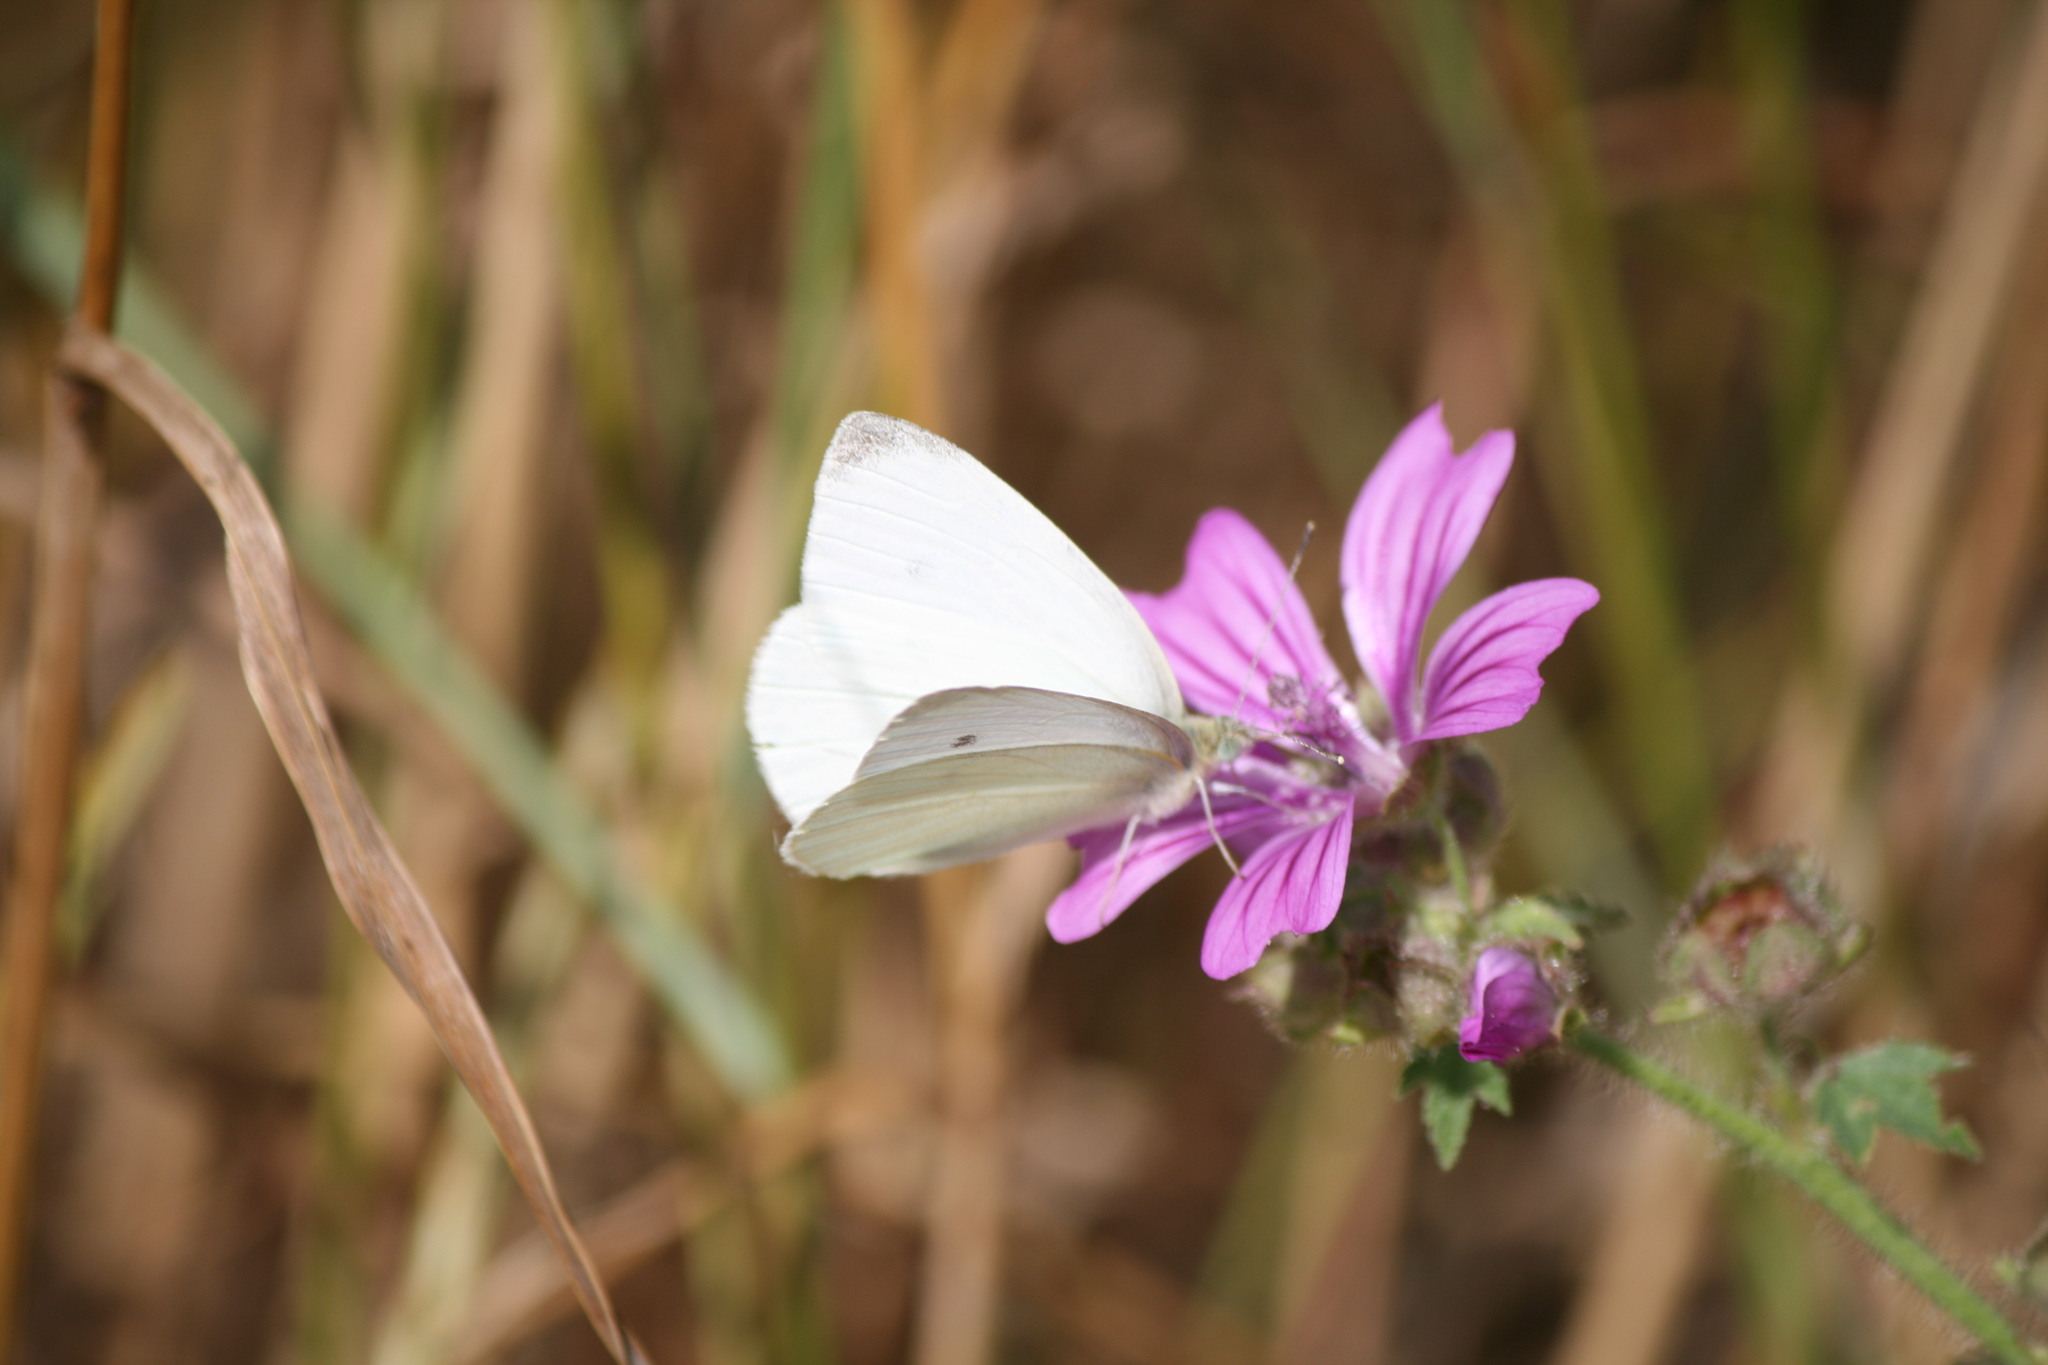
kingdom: Animalia
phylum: Arthropoda
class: Insecta
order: Lepidoptera
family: Pieridae
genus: Pieris
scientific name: Pieris rapae
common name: Small white
